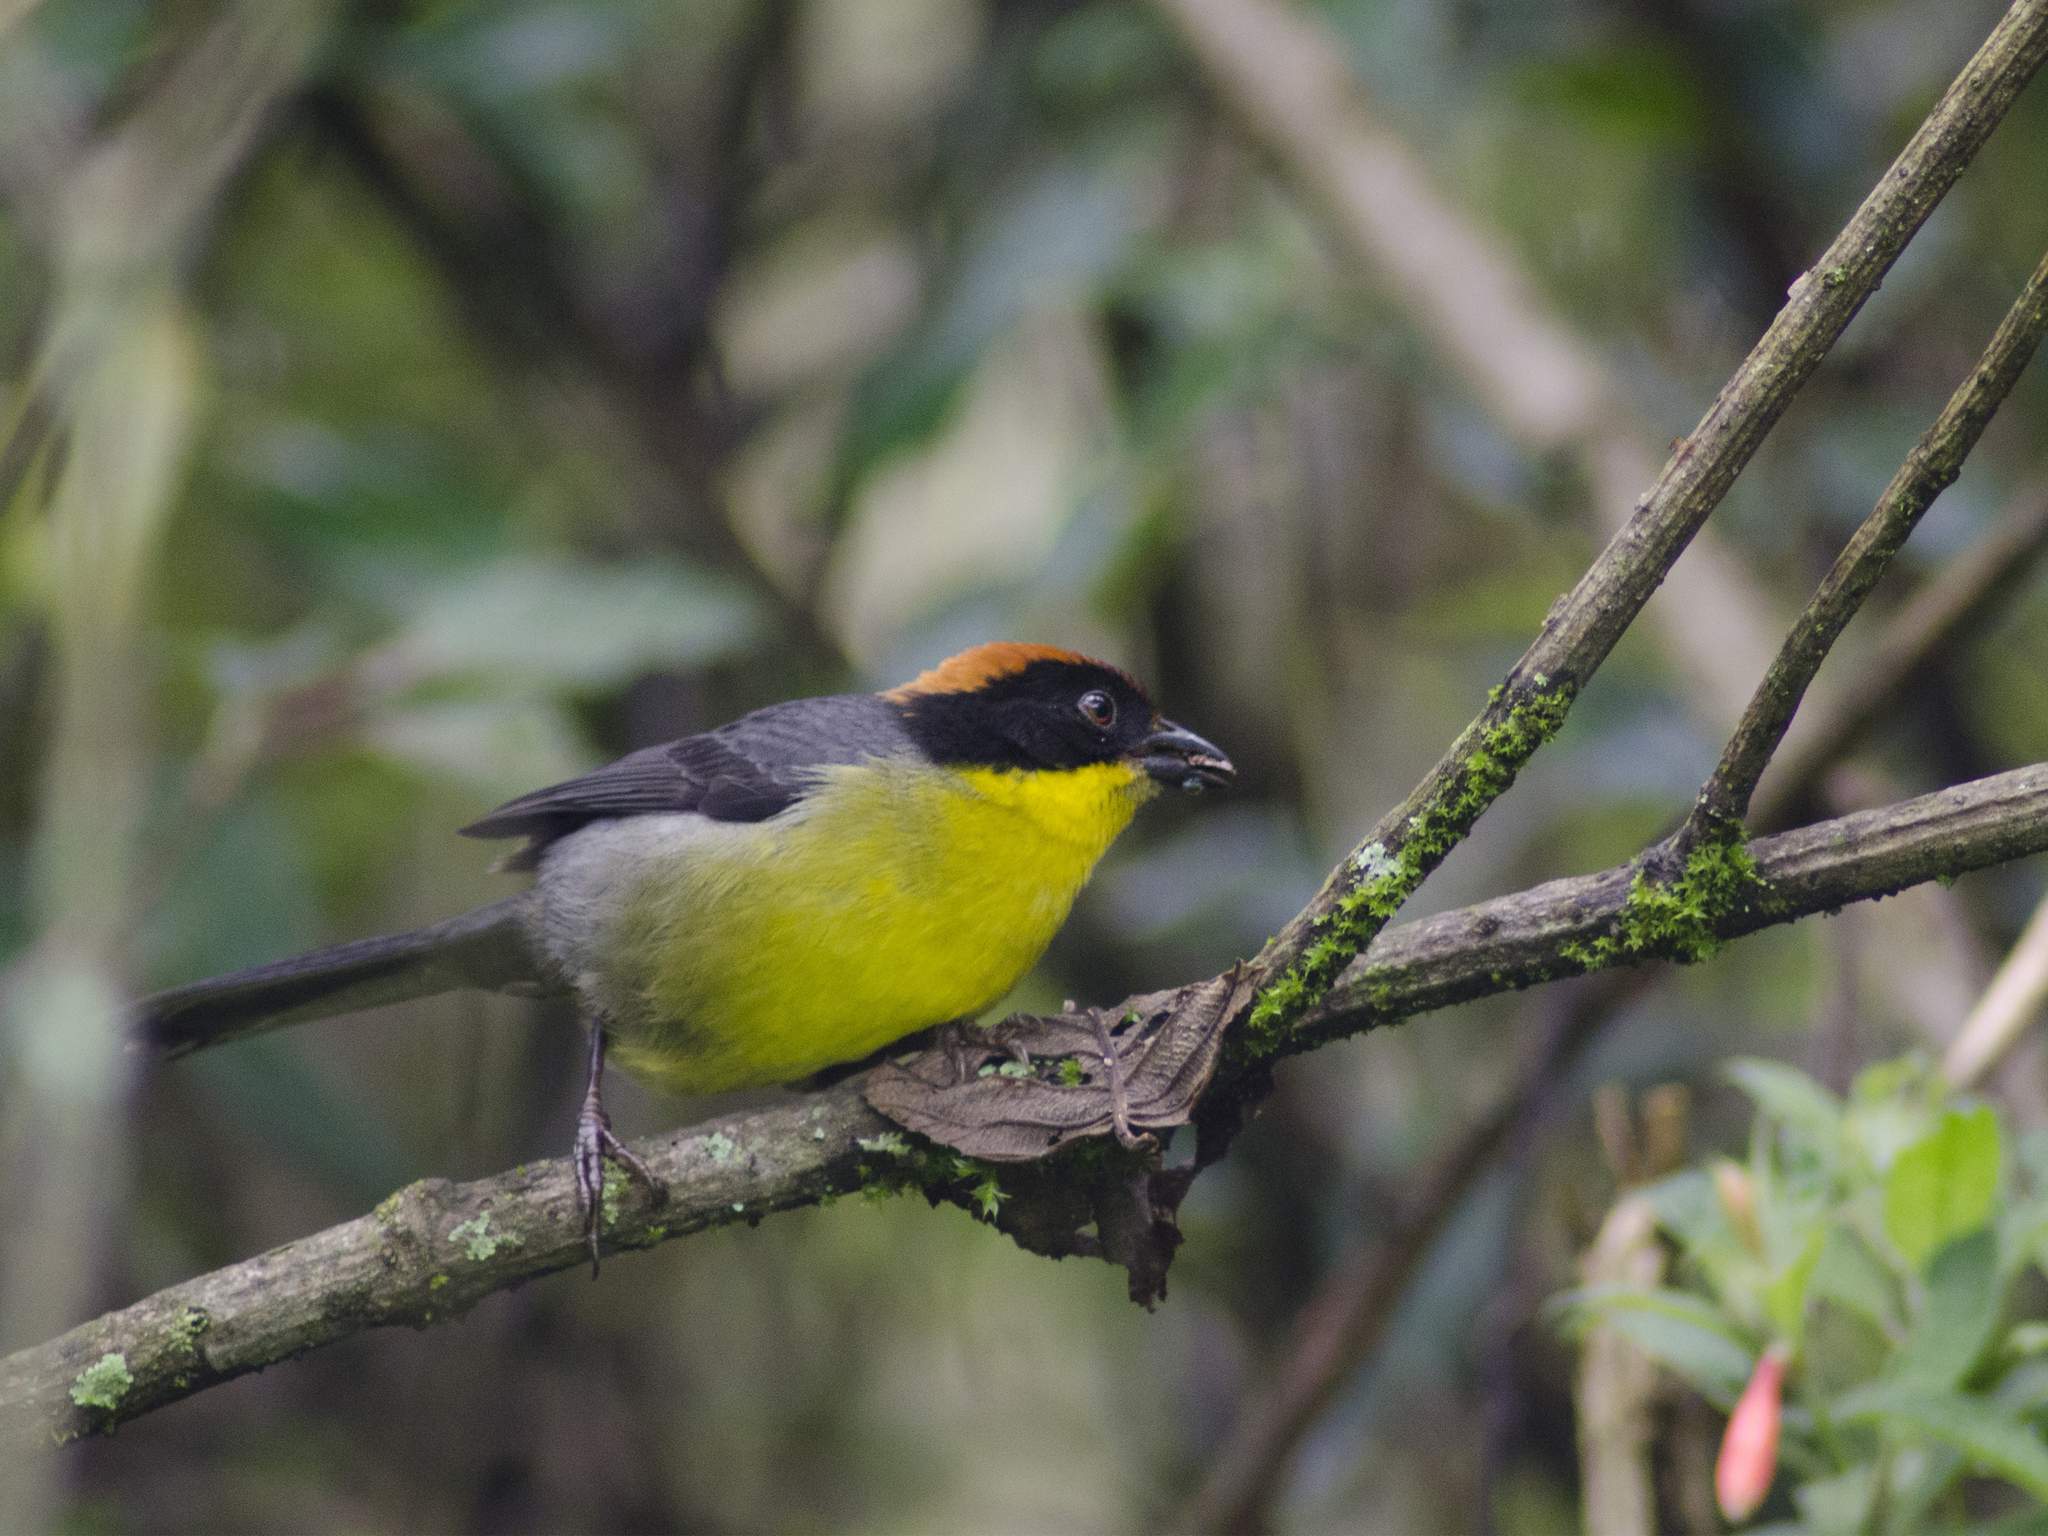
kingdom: Animalia
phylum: Chordata
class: Aves
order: Passeriformes
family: Passerellidae
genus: Atlapetes
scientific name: Atlapetes latinuchus
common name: Yellow-breasted brushfinch
